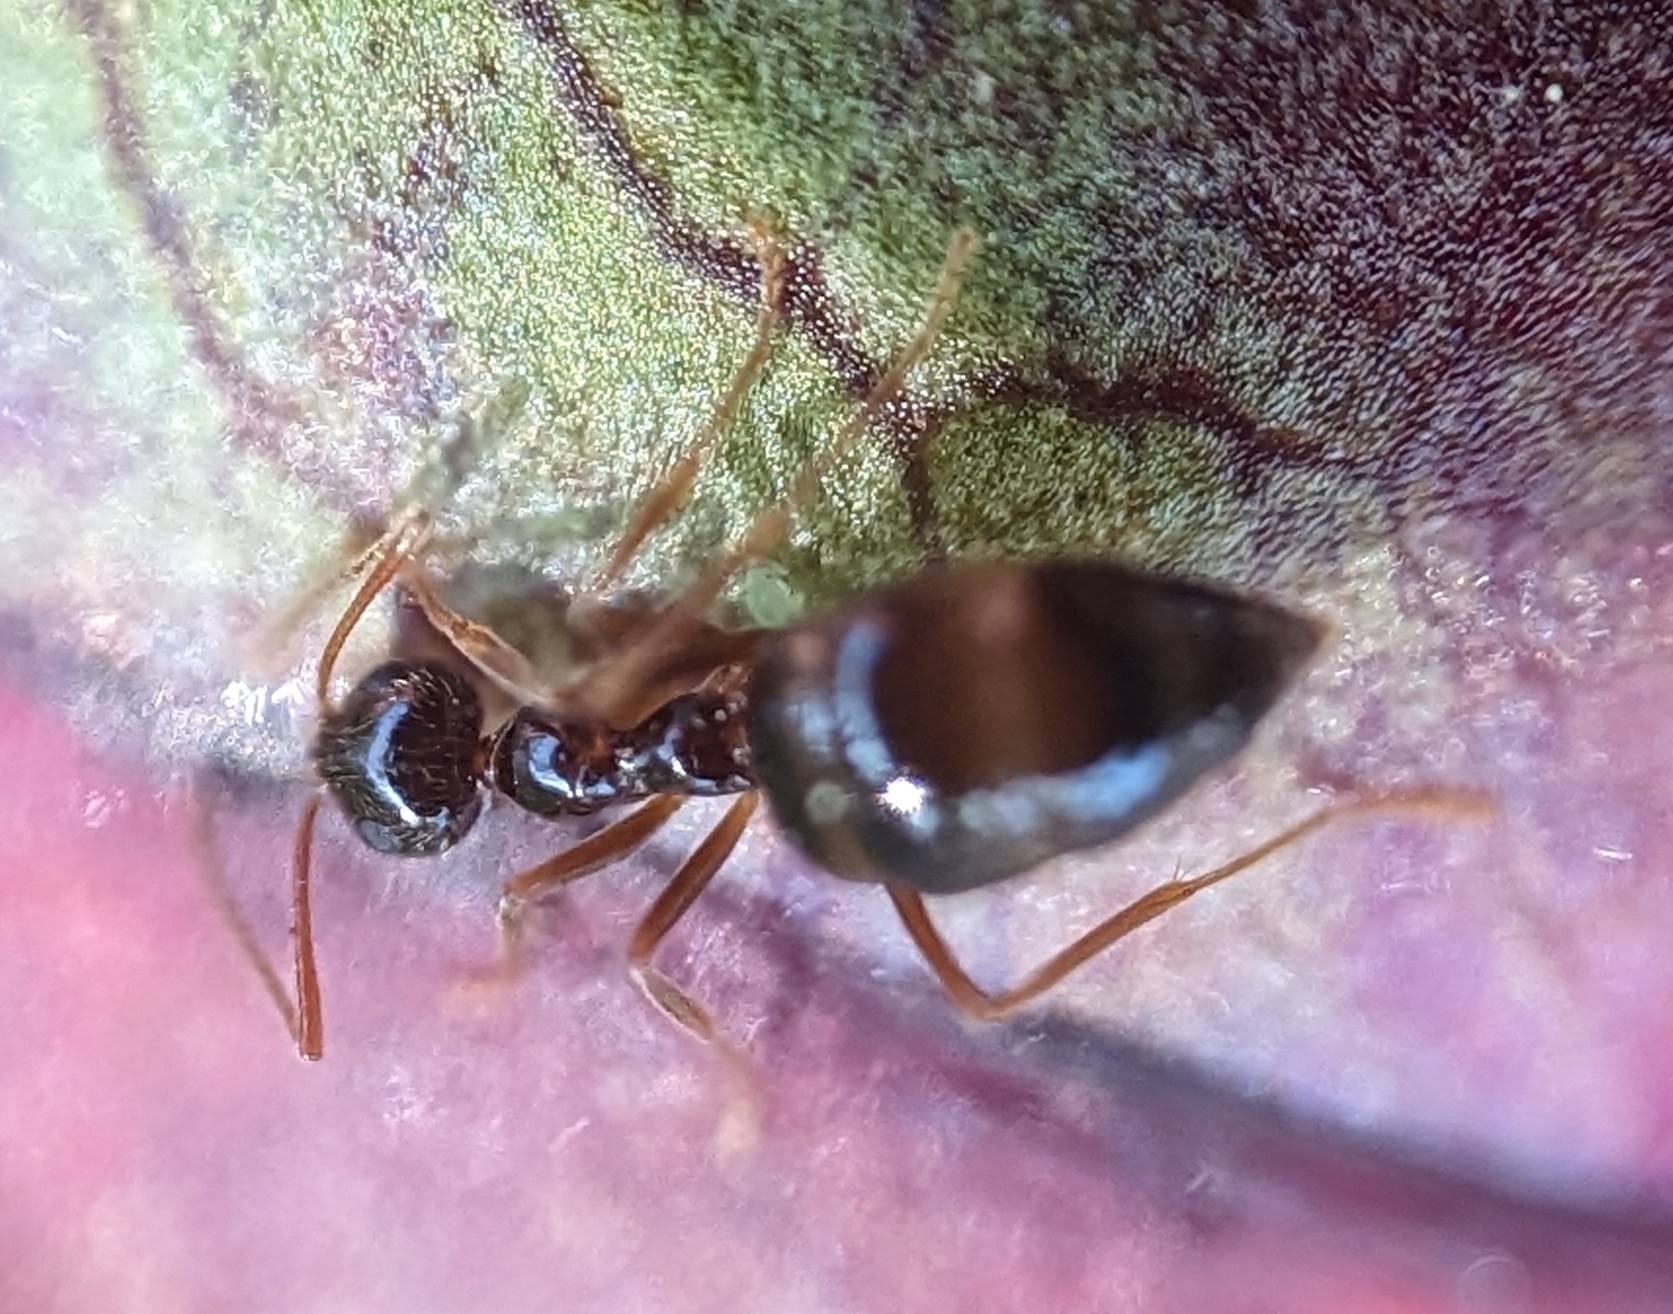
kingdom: Animalia
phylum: Arthropoda
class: Insecta
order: Hymenoptera
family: Formicidae
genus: Prenolepis
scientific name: Prenolepis imparis
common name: Small honey ant
